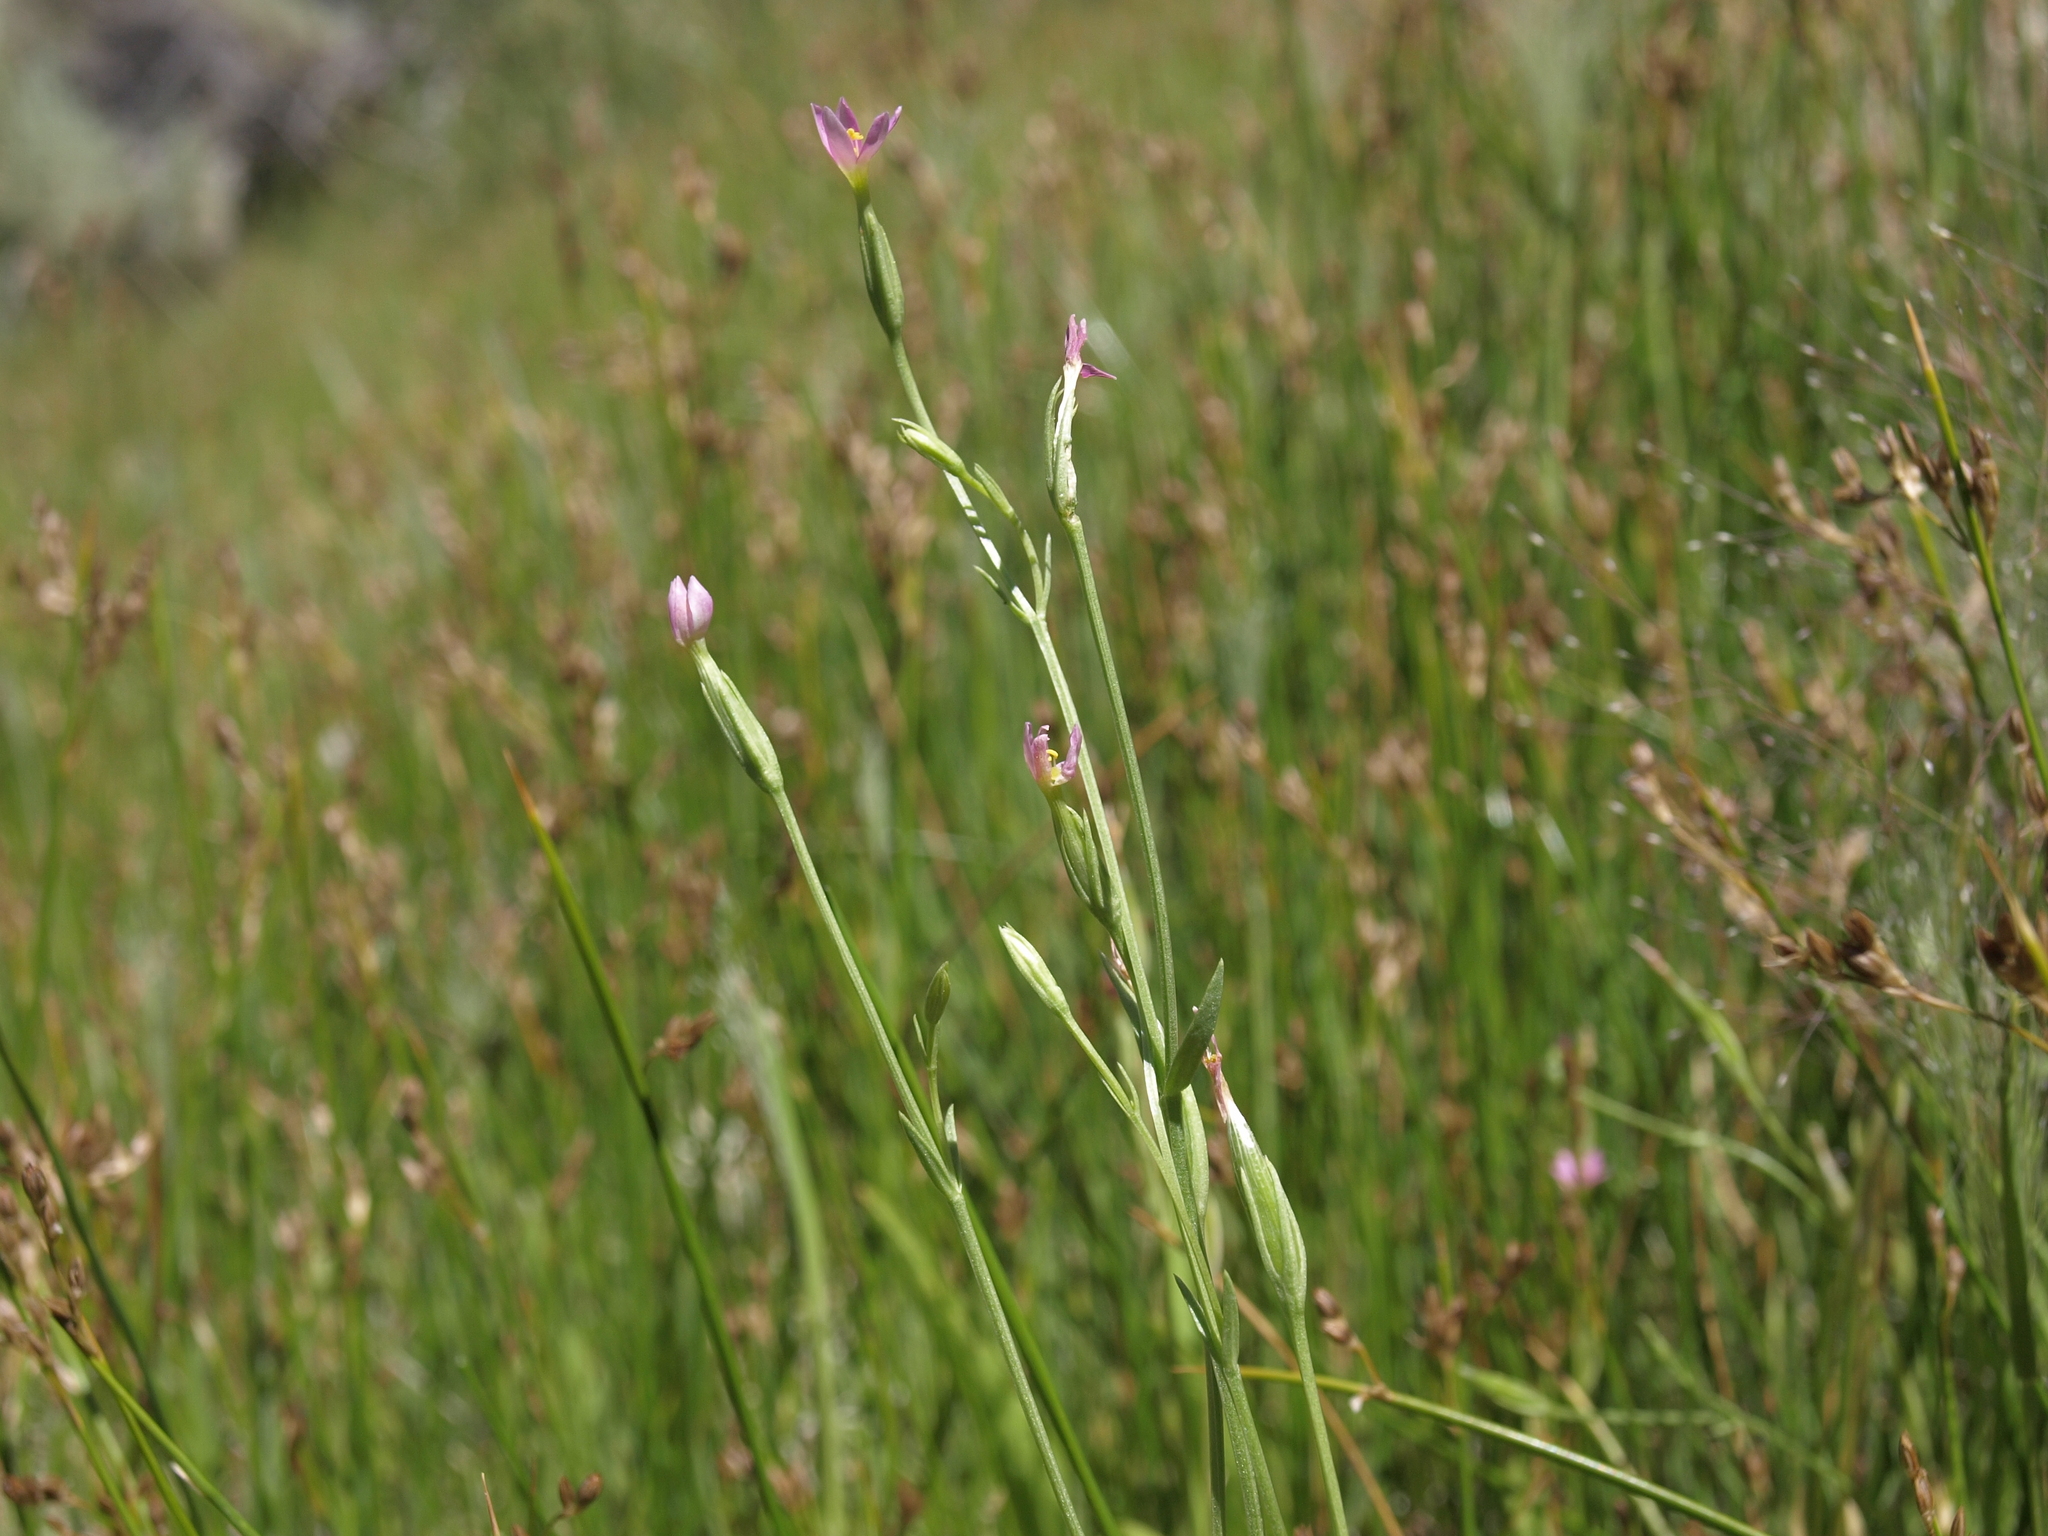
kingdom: Plantae
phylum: Tracheophyta
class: Magnoliopsida
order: Gentianales
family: Gentianaceae
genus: Zeltnera
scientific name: Zeltnera exaltata
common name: Great basin centaury
